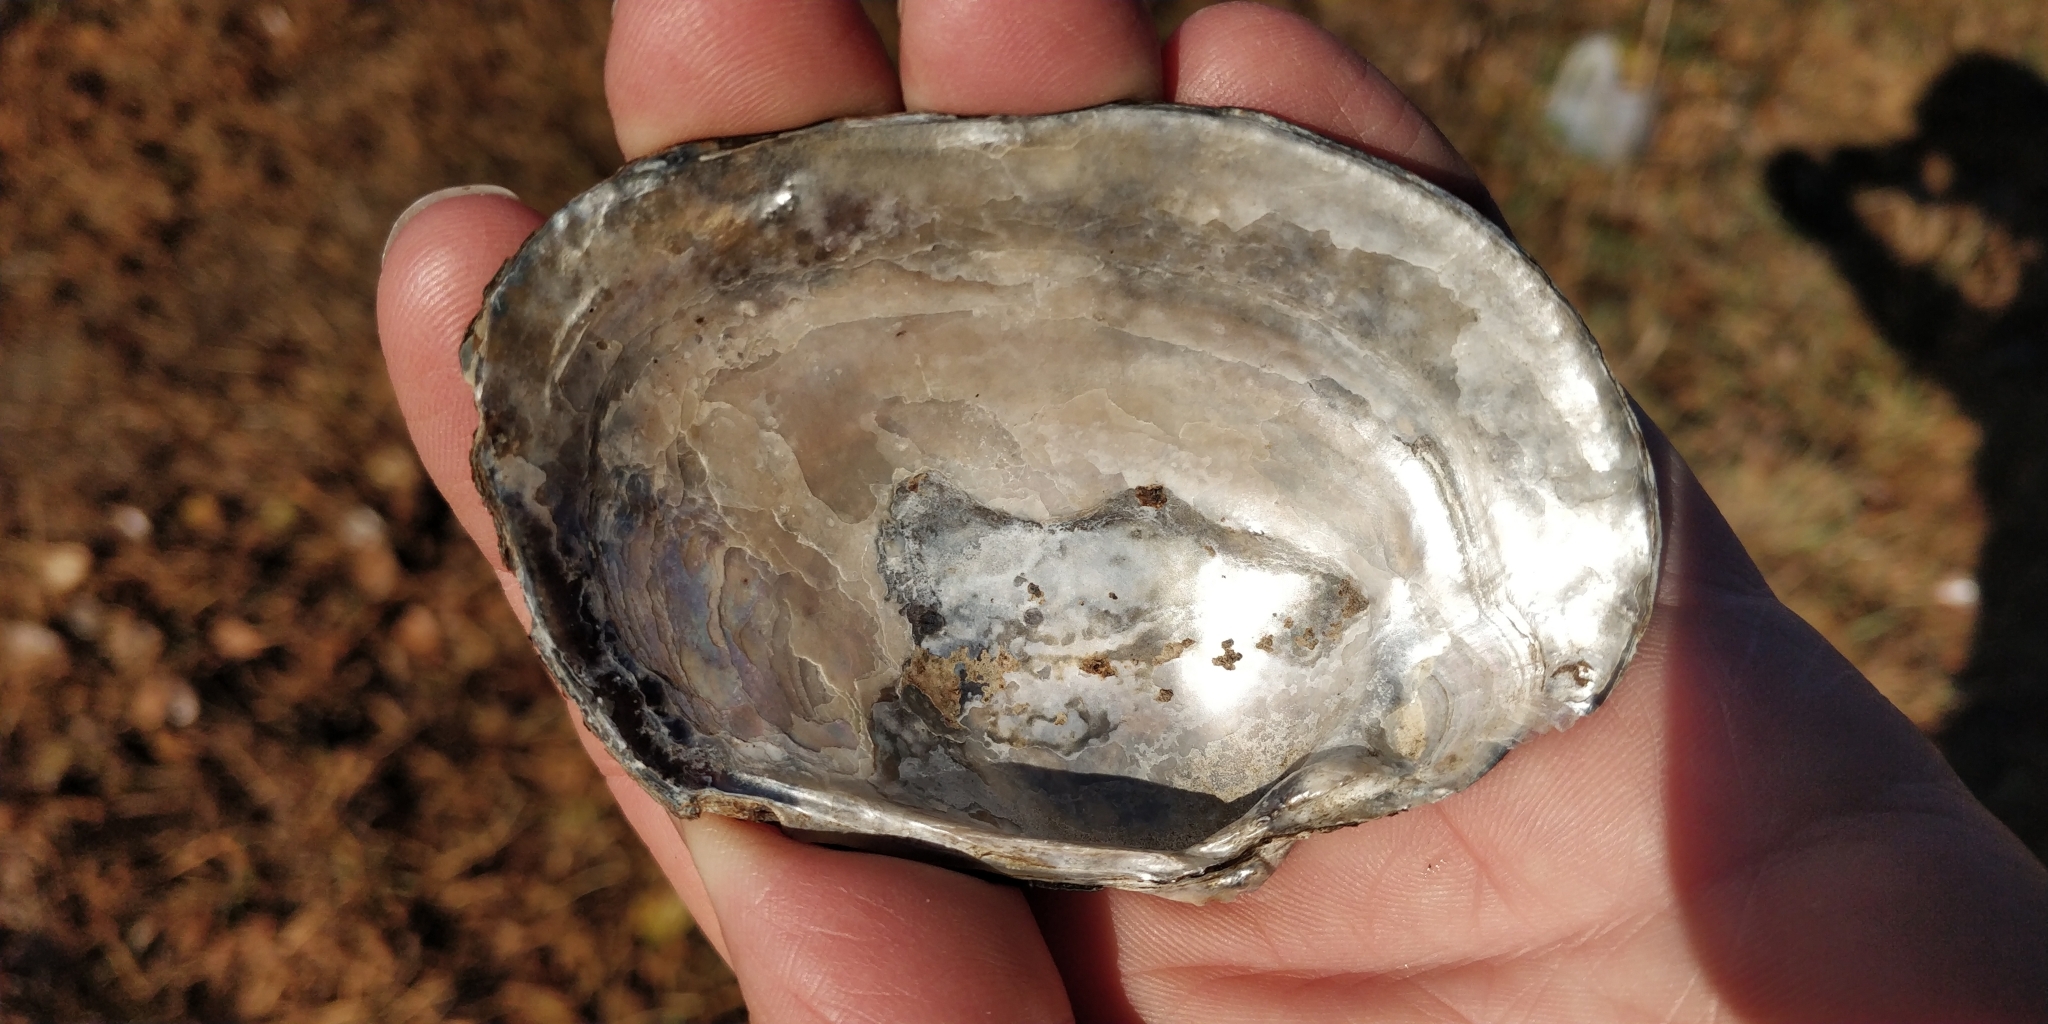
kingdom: Animalia
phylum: Mollusca
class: Bivalvia
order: Unionida
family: Unionidae
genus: Arcidens
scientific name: Arcidens confragosus
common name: Rock pocketbook
